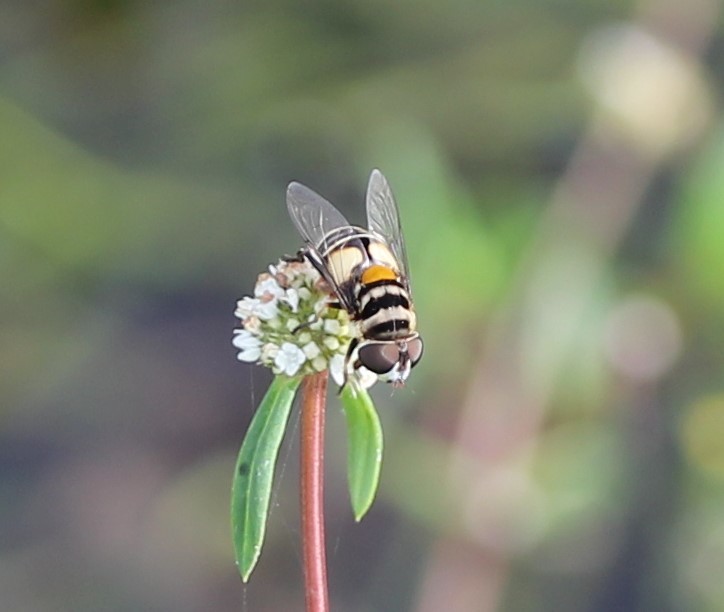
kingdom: Animalia
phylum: Arthropoda
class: Insecta
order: Diptera
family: Syrphidae
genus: Palpada
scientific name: Palpada albifrons
